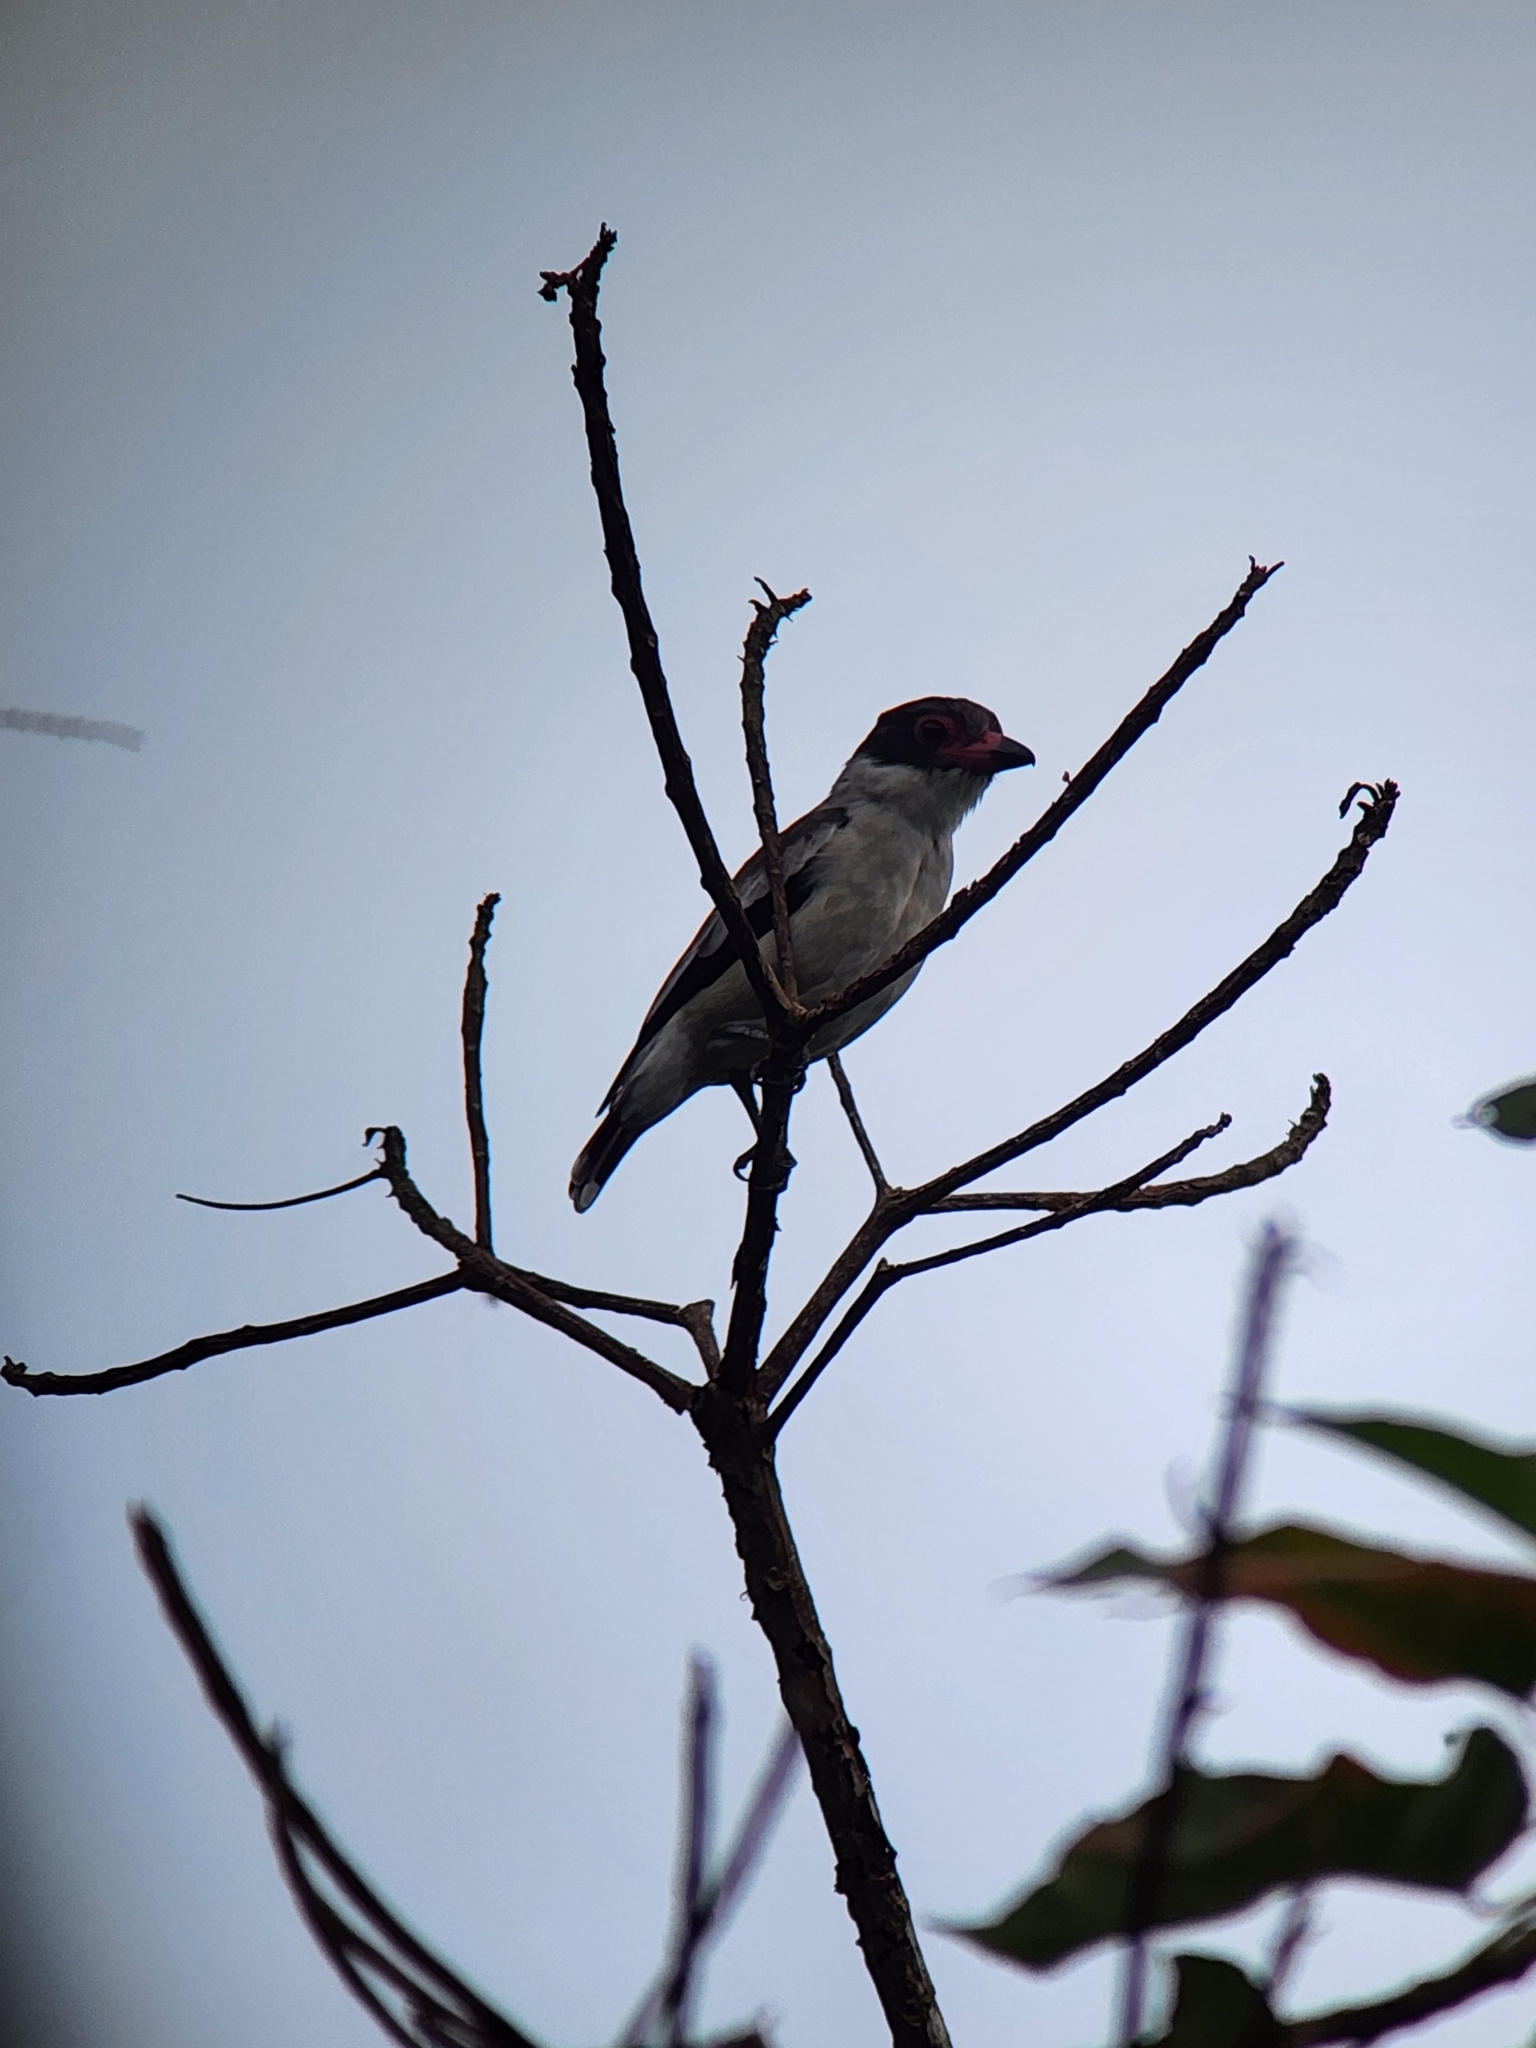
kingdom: Animalia
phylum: Chordata
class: Aves
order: Passeriformes
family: Cotingidae
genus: Tityra
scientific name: Tityra semifasciata
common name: Masked tityra
